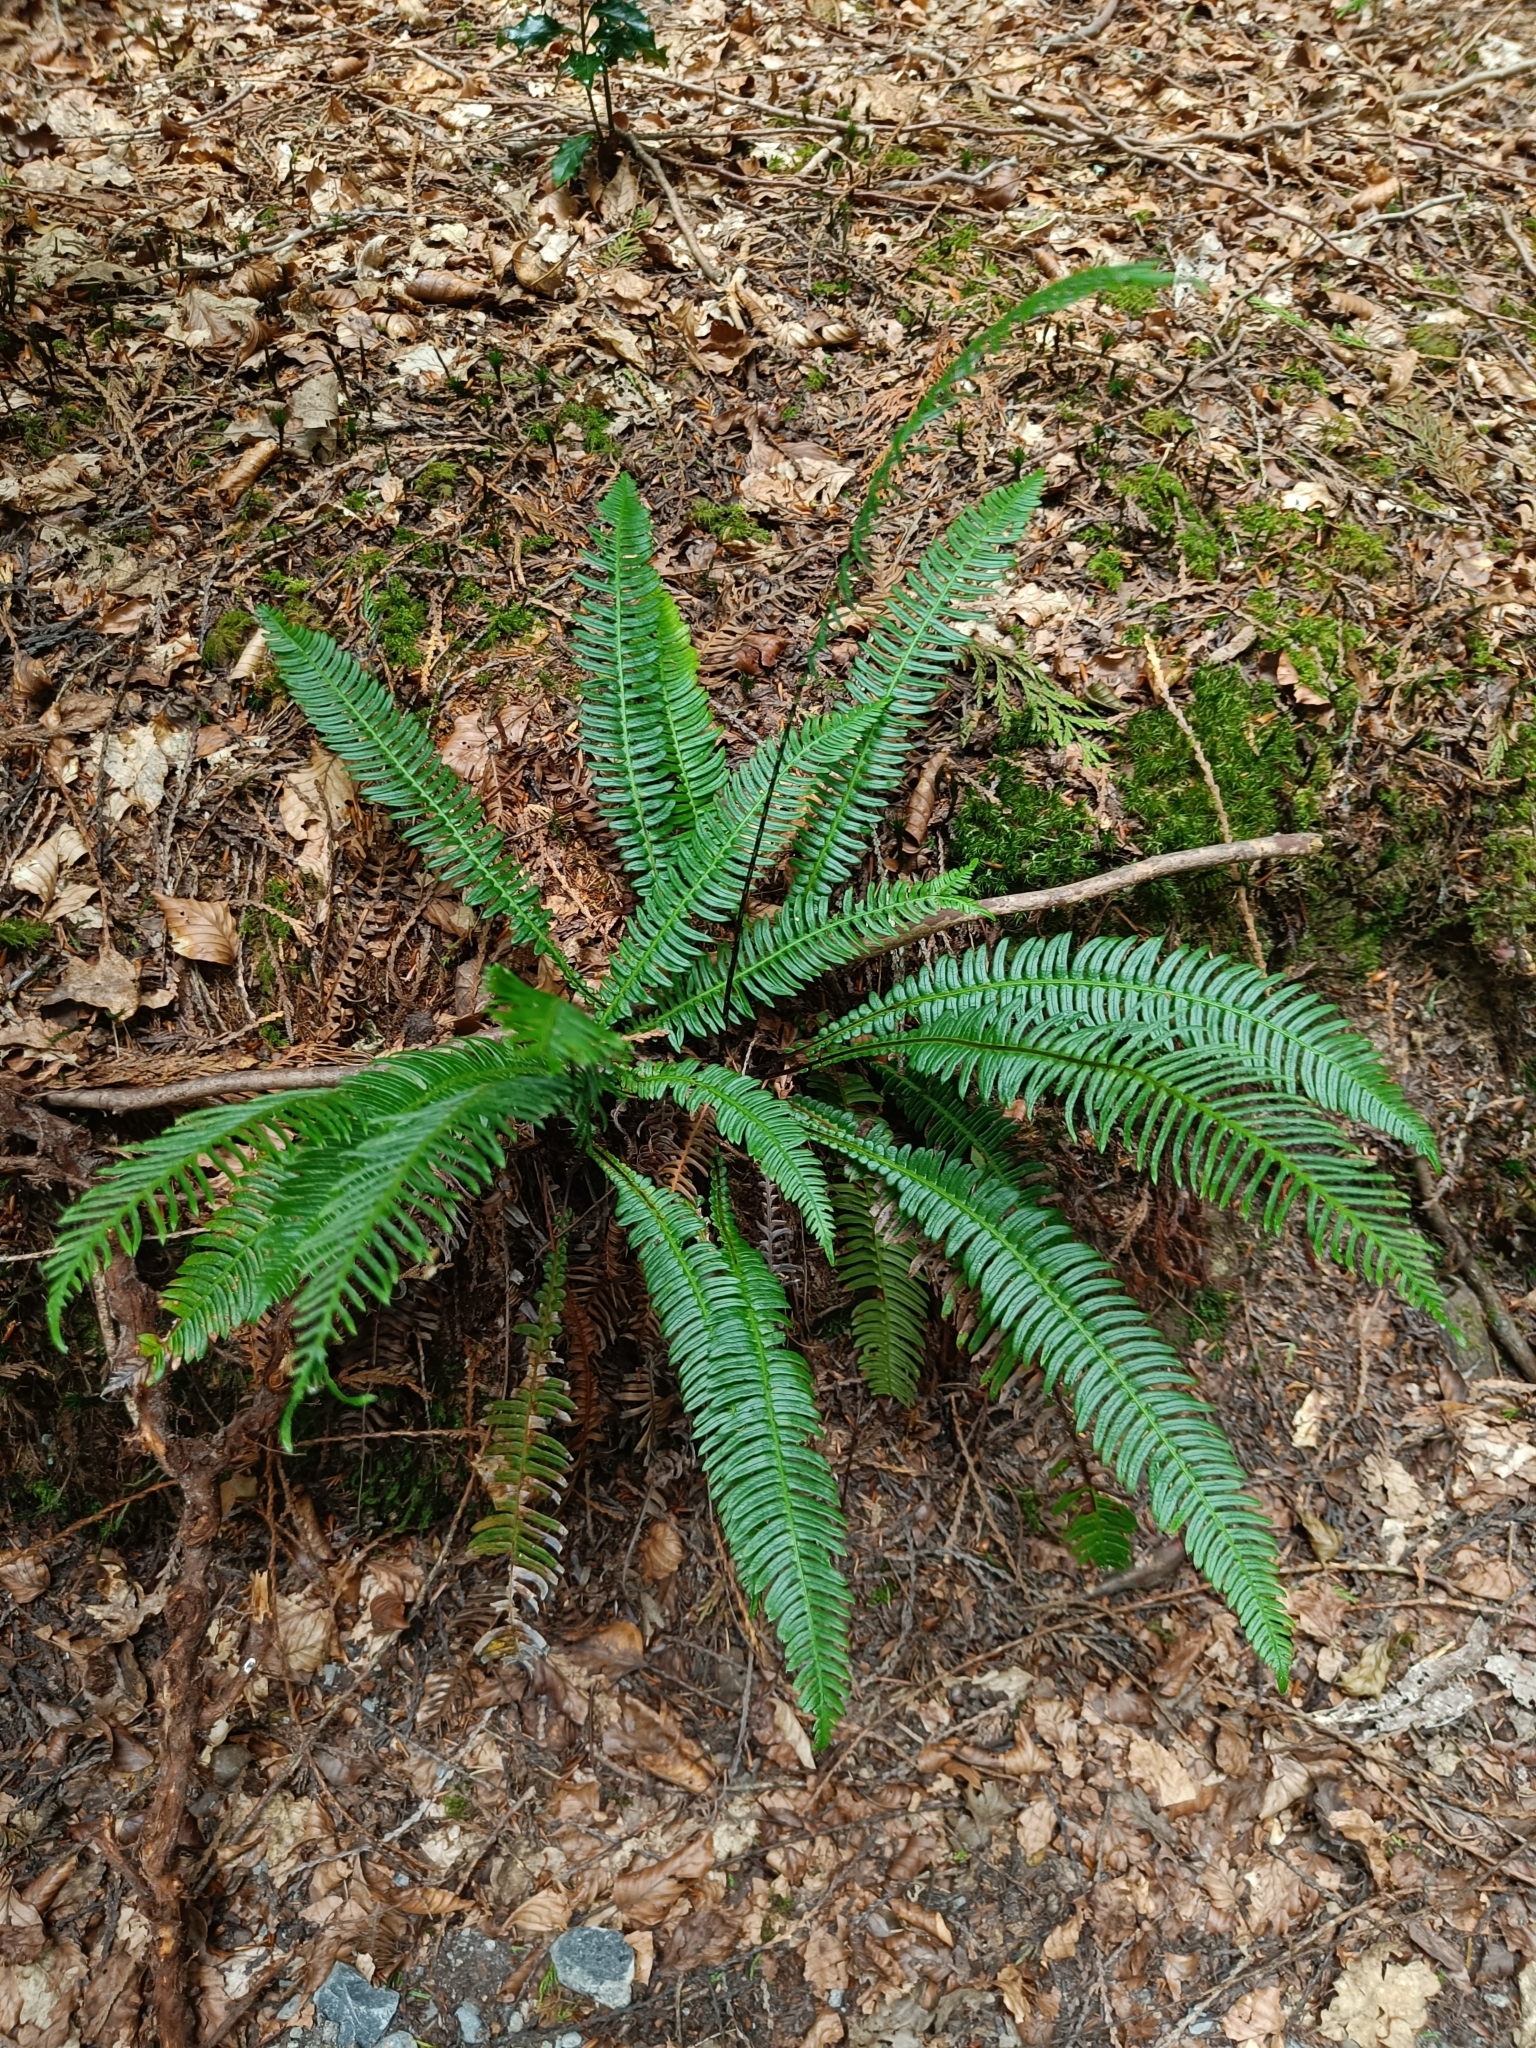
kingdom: Plantae
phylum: Tracheophyta
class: Polypodiopsida
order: Polypodiales
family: Blechnaceae
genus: Struthiopteris
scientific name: Struthiopteris spicant
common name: Deer fern
